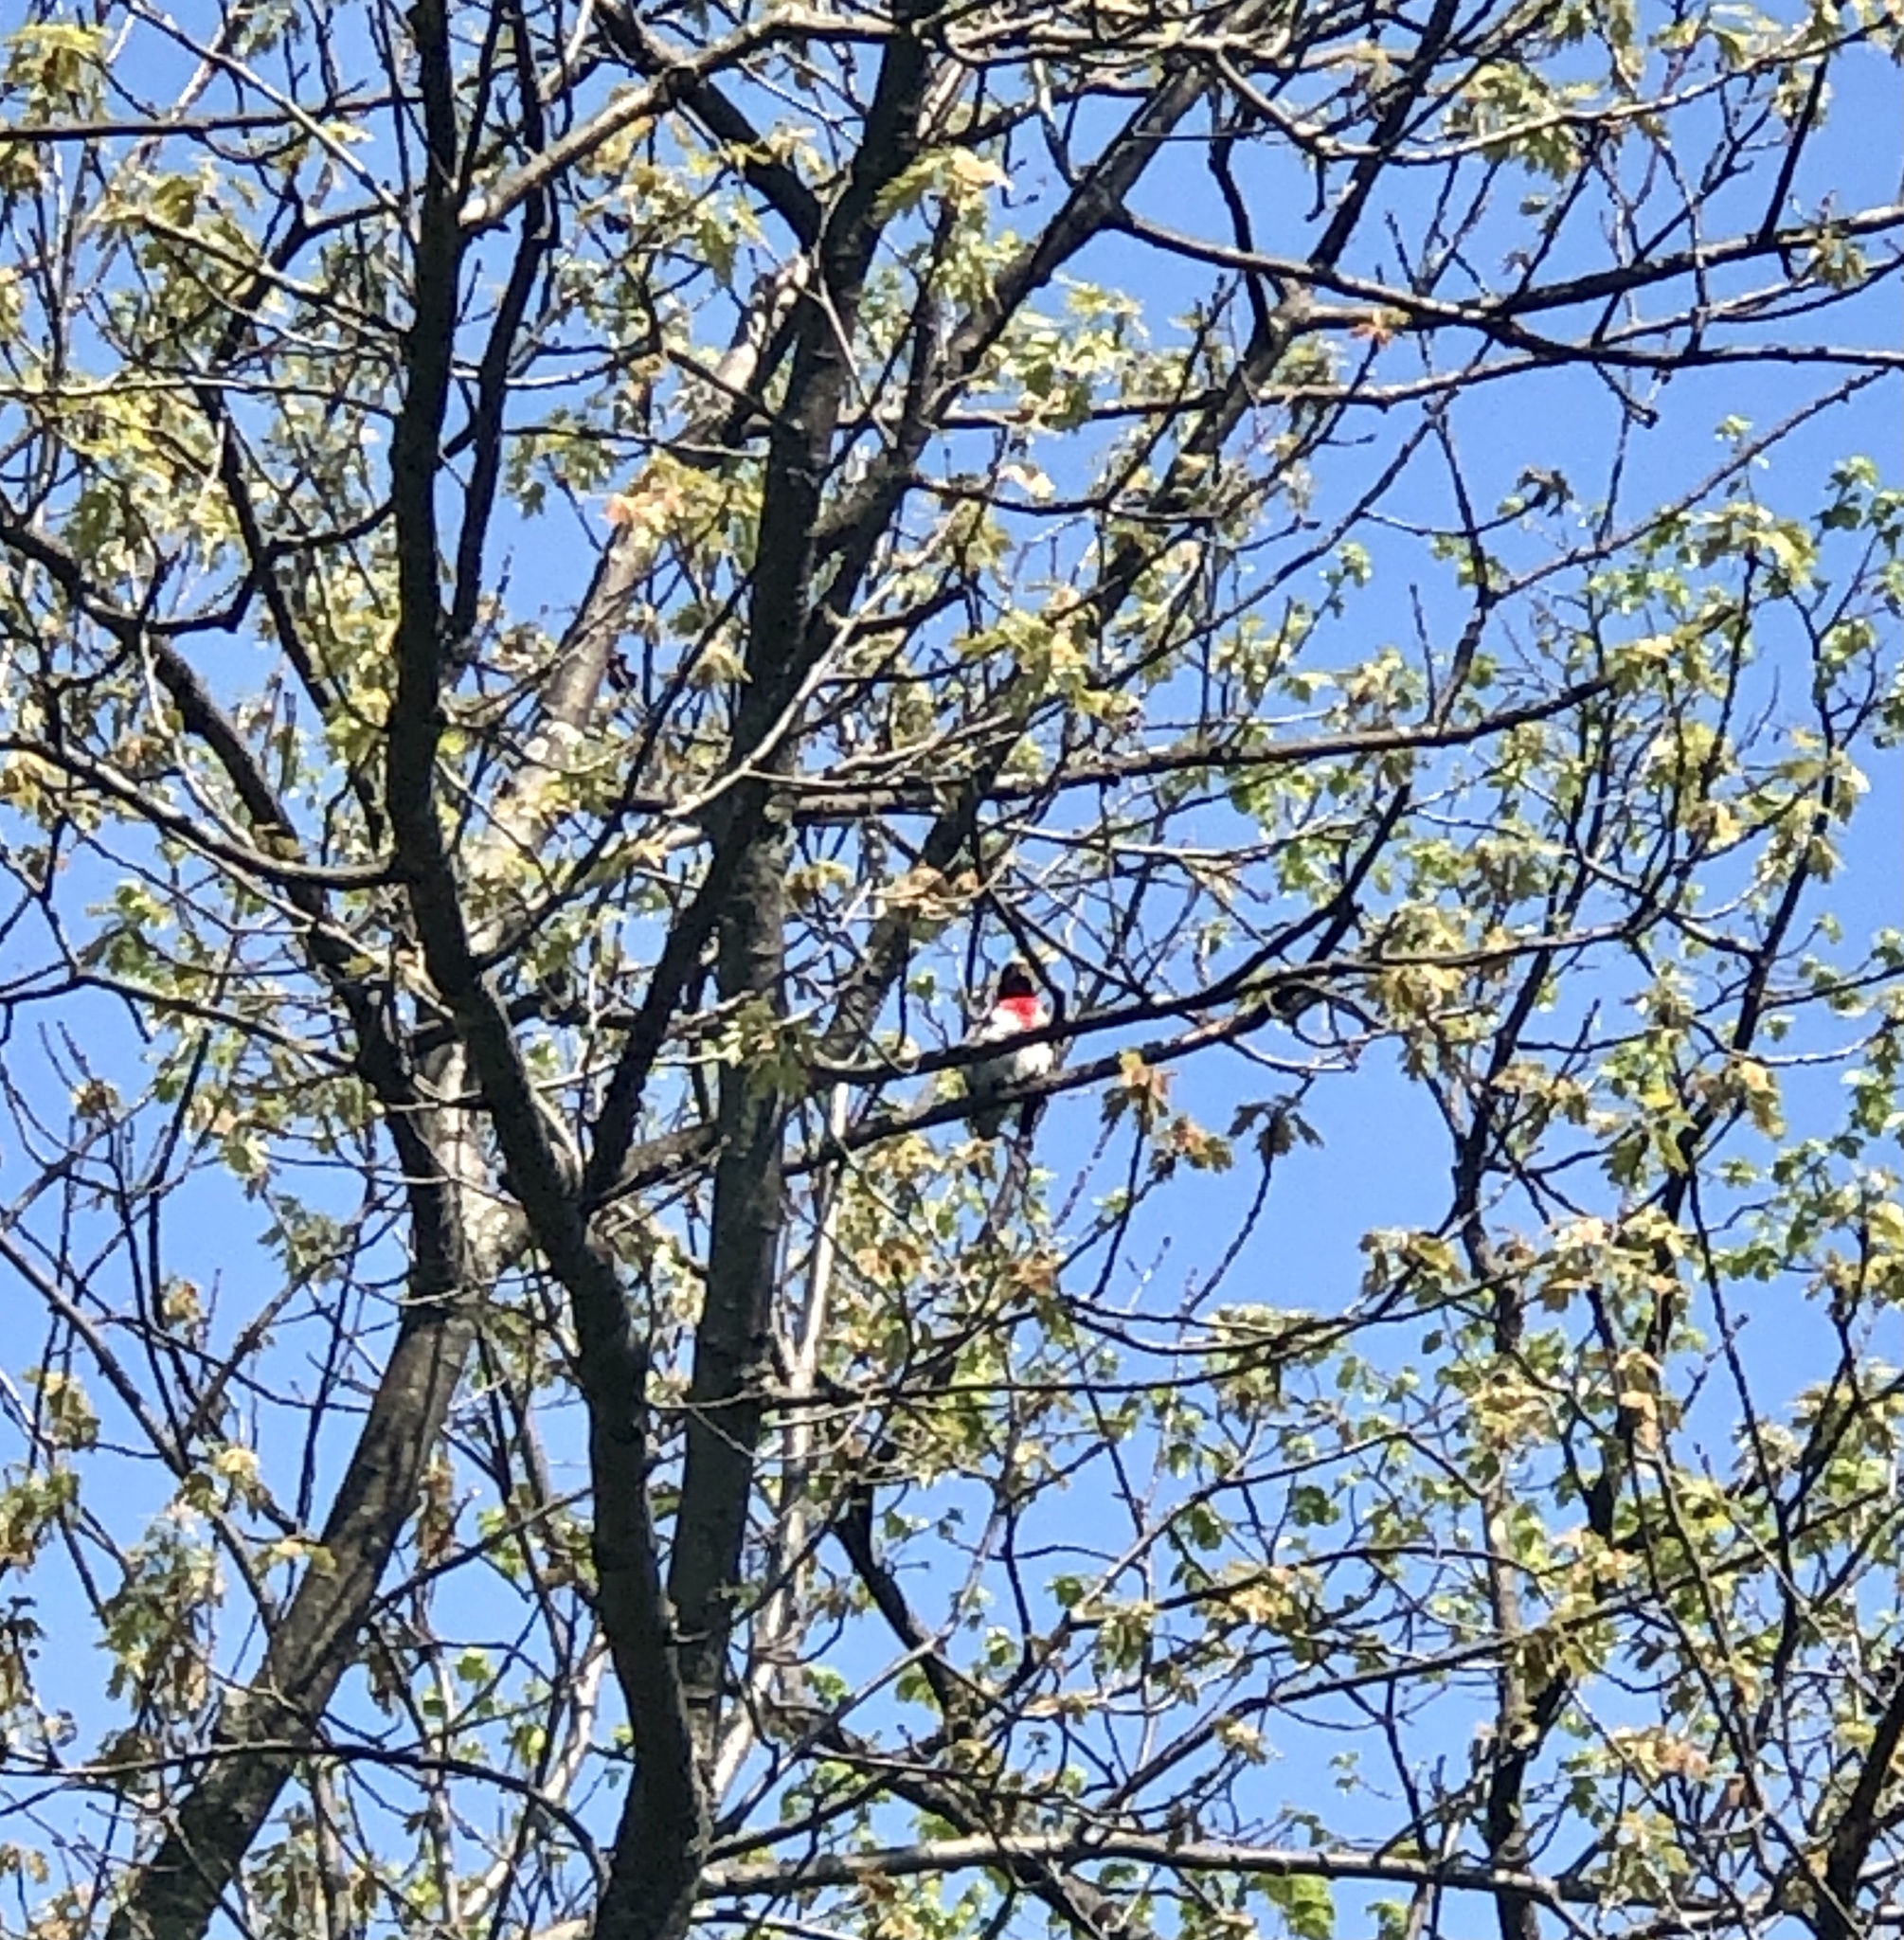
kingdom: Animalia
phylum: Chordata
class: Aves
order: Passeriformes
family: Cardinalidae
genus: Pheucticus
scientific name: Pheucticus ludovicianus
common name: Rose-breasted grosbeak
